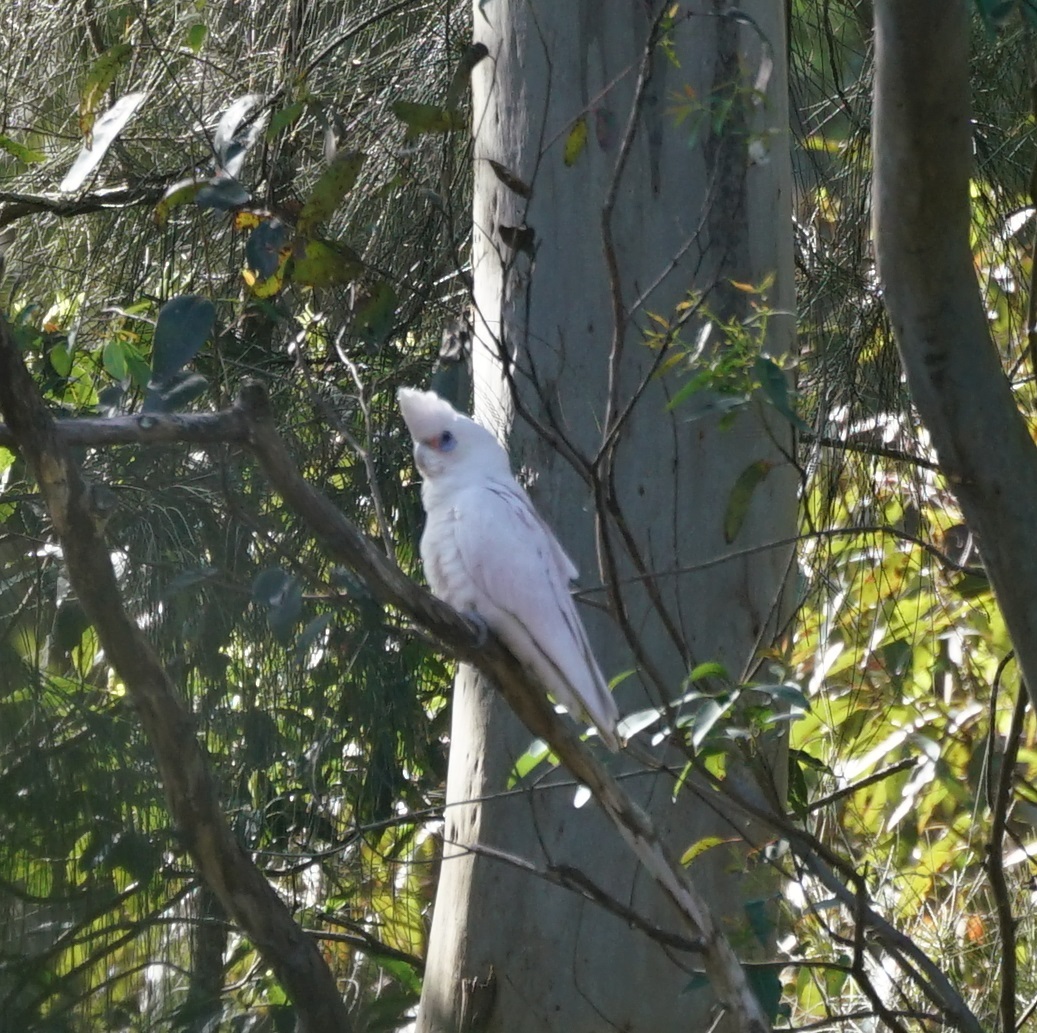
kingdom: Animalia
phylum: Chordata
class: Aves
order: Psittaciformes
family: Psittacidae
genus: Cacatua
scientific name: Cacatua sanguinea
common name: Little corella
